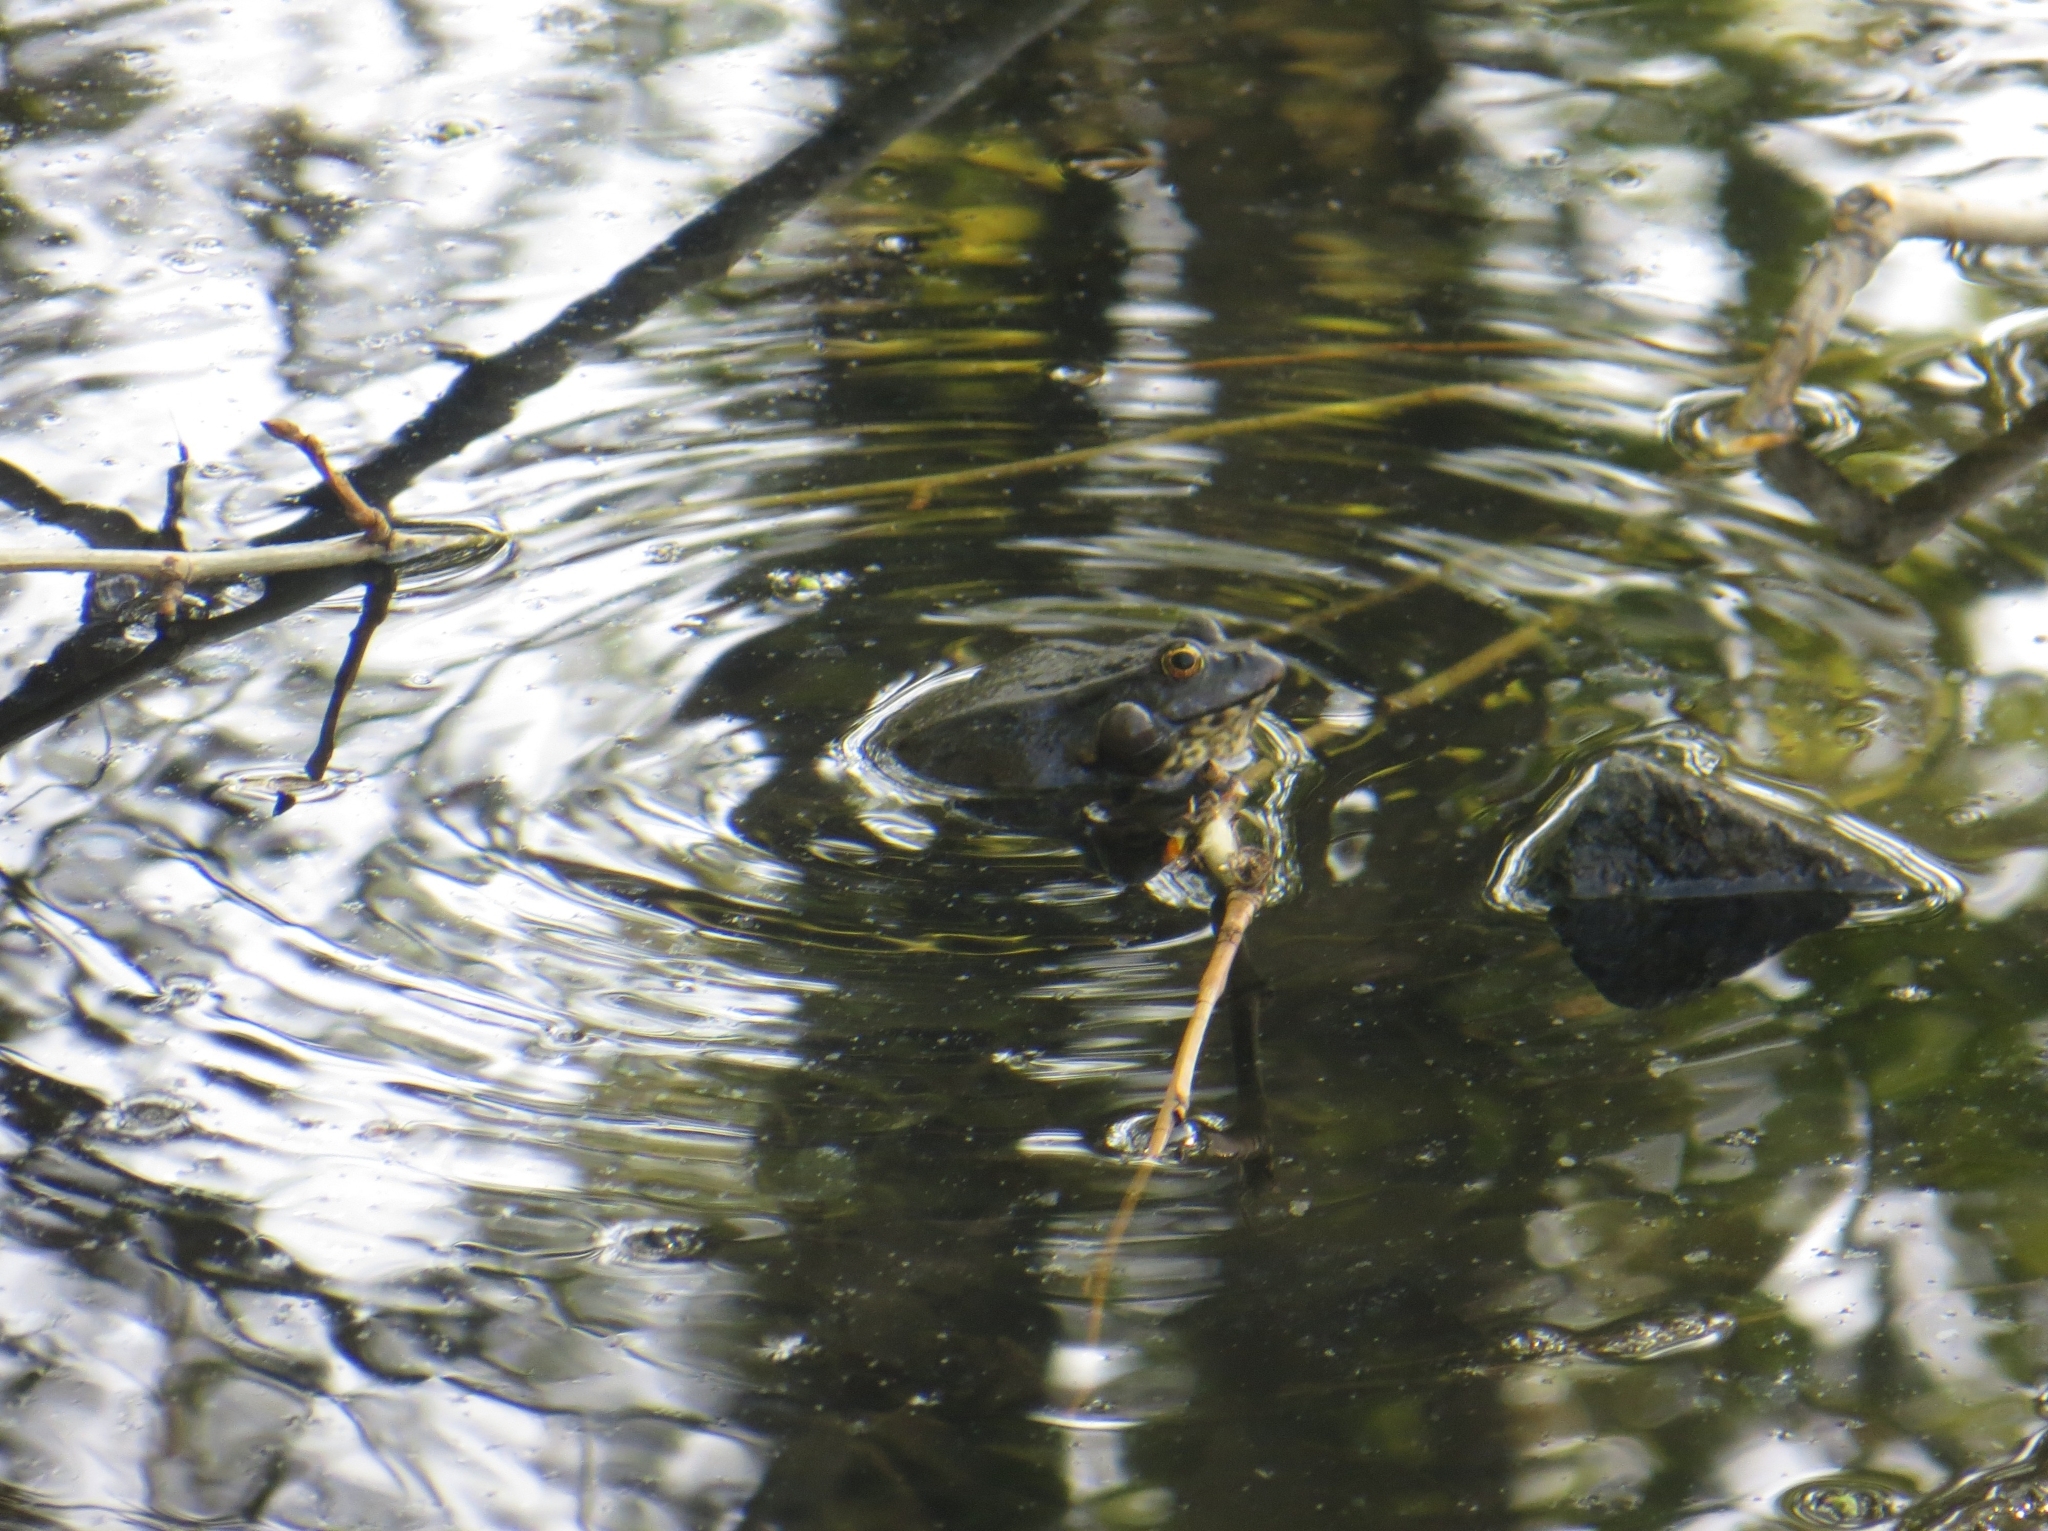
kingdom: Animalia
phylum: Chordata
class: Amphibia
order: Anura
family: Ranidae
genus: Pelophylax
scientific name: Pelophylax ridibundus
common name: Marsh frog
